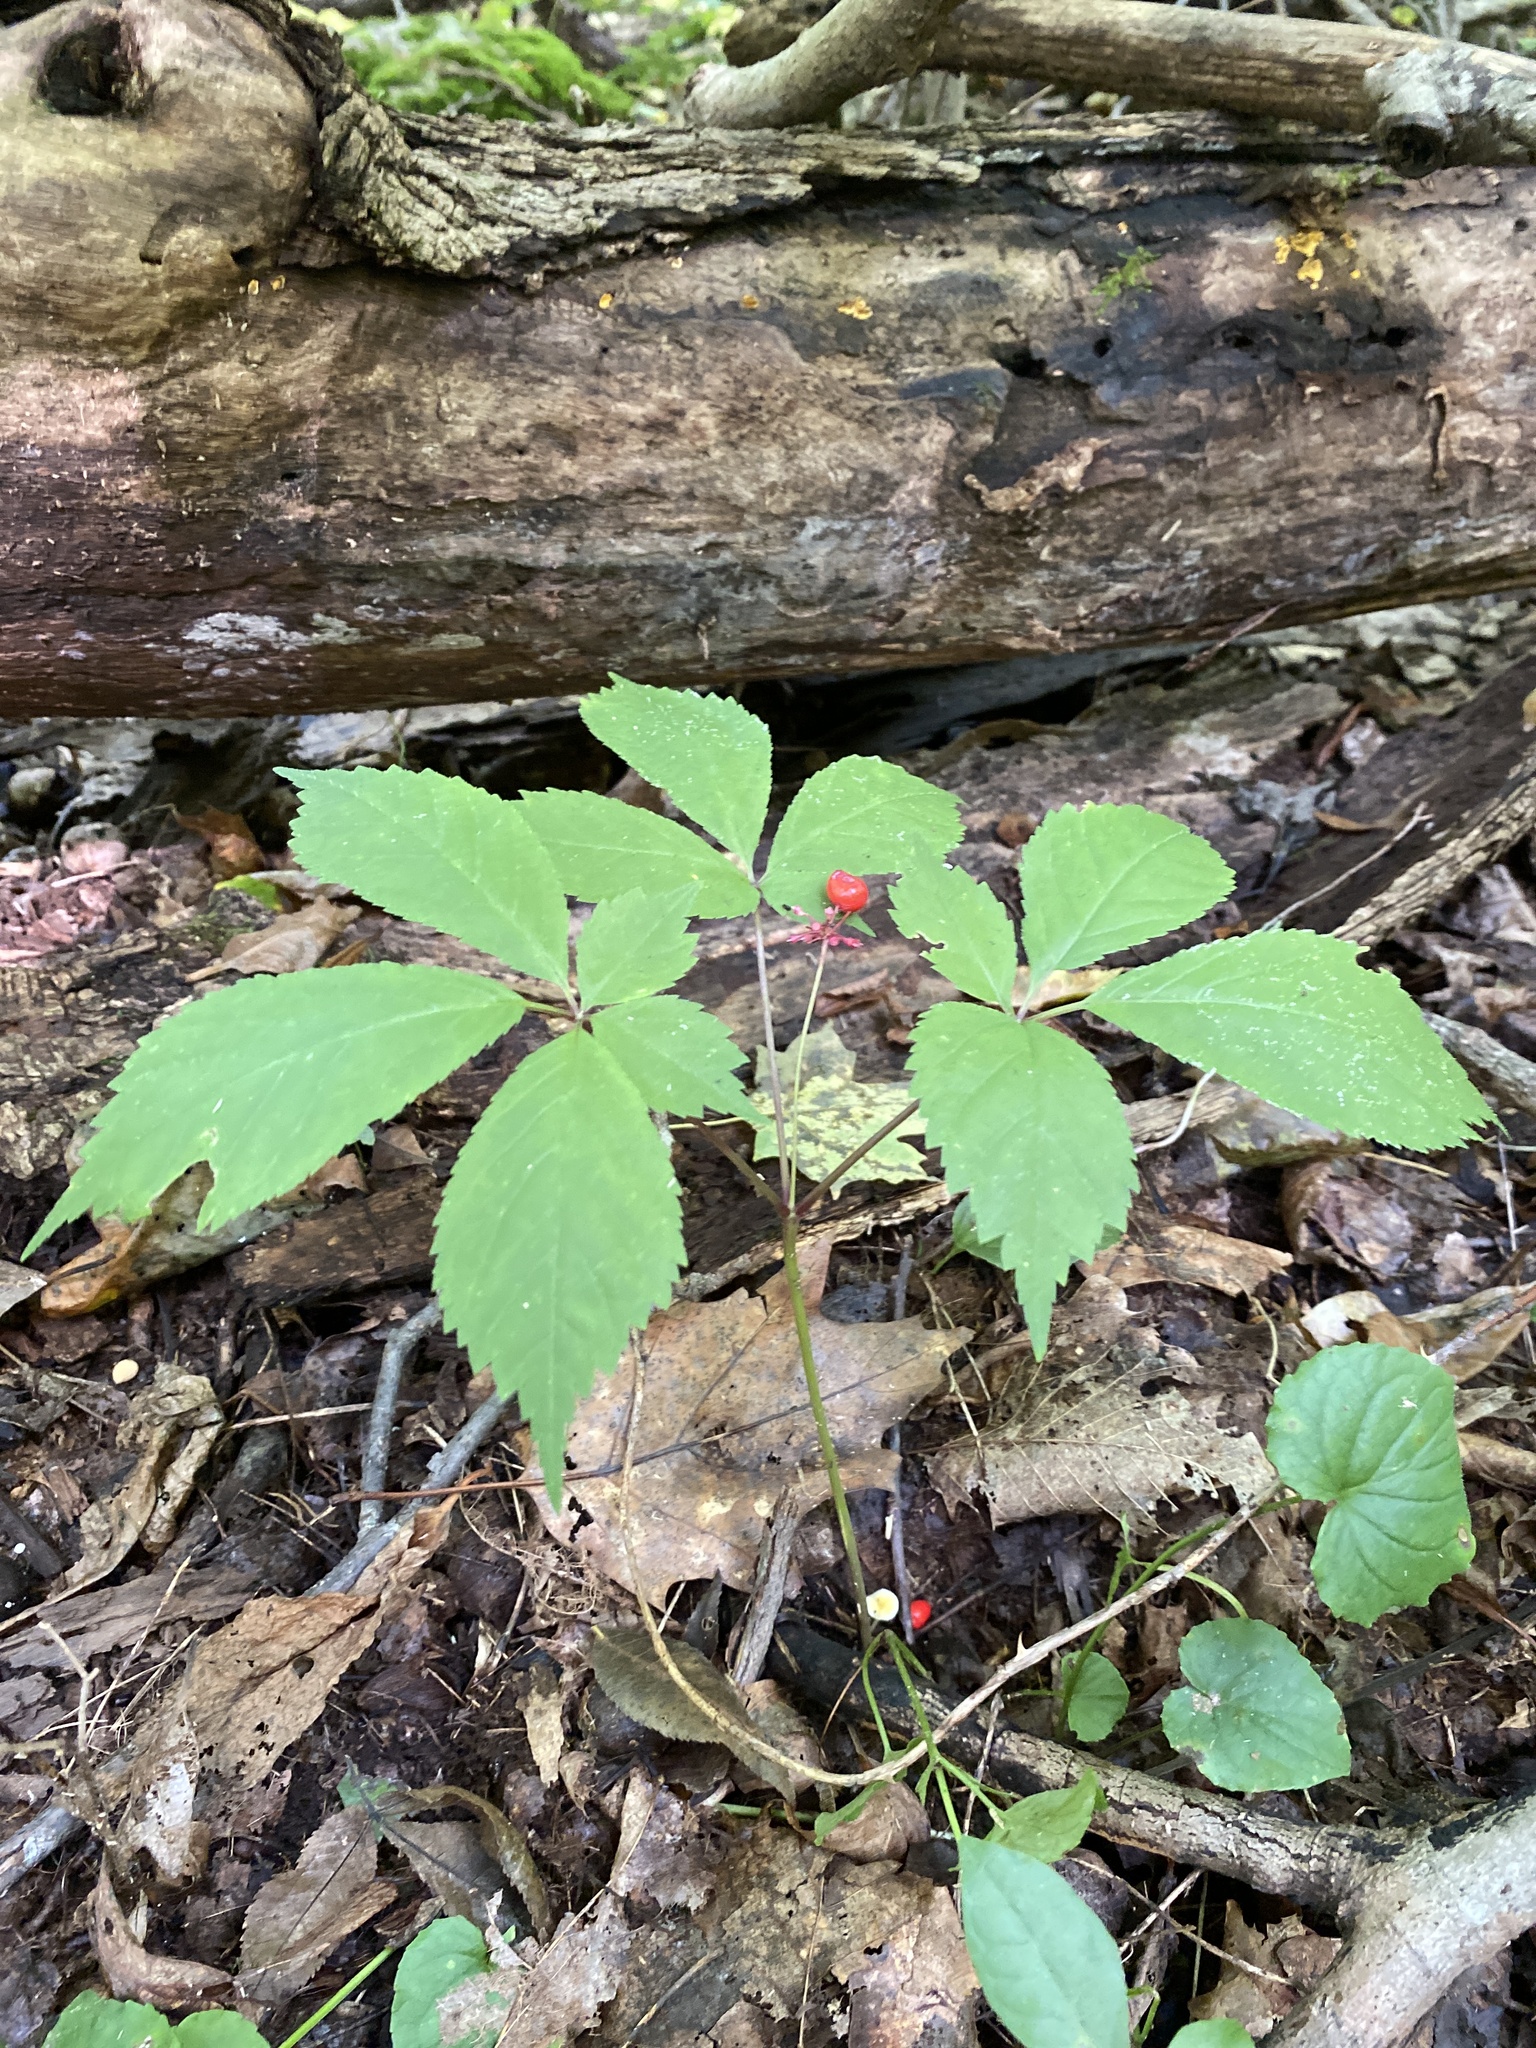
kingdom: Plantae
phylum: Tracheophyta
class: Magnoliopsida
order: Apiales
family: Araliaceae
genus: Panax
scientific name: Panax quinquefolius
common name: American ginseng
